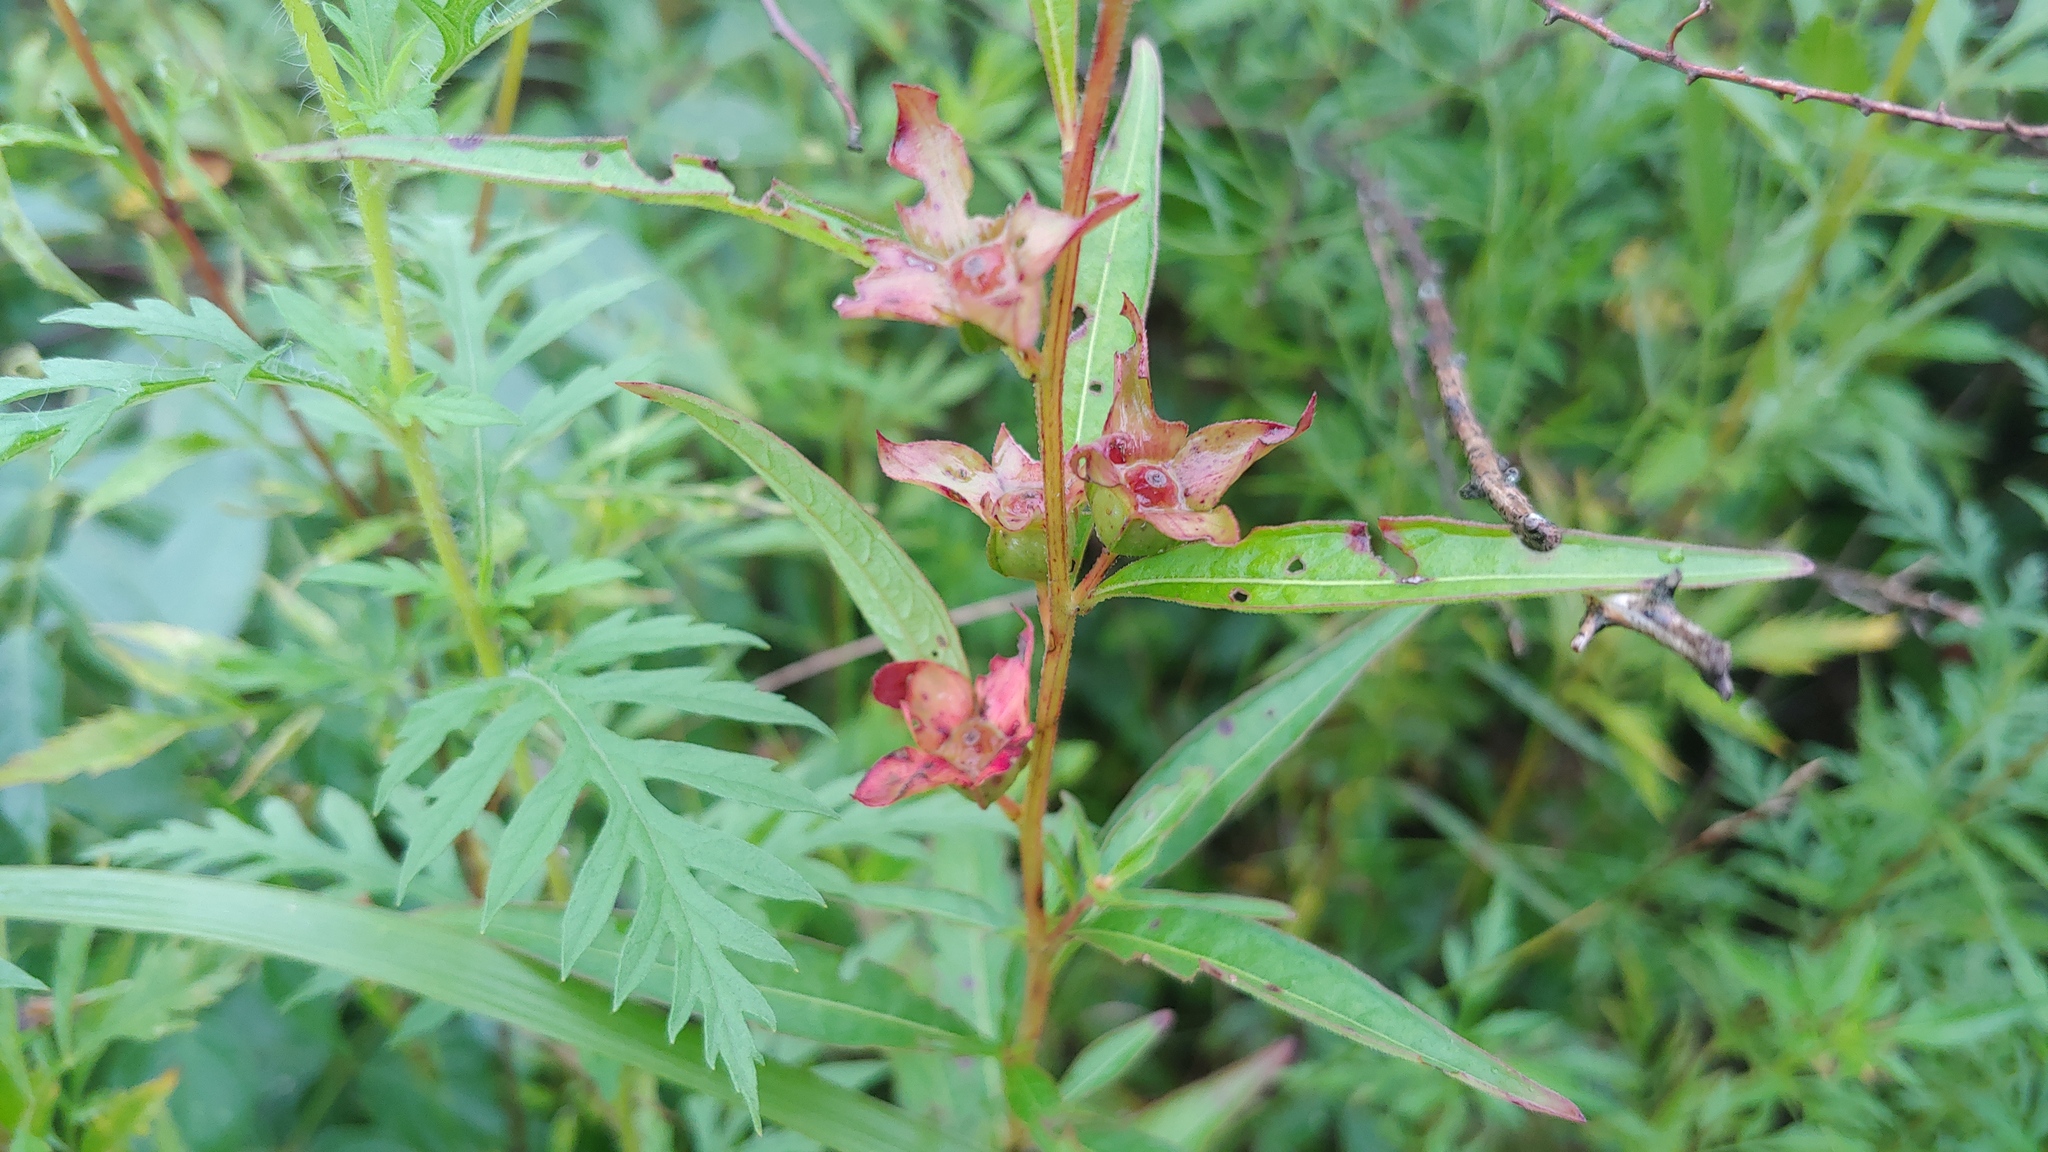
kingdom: Plantae
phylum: Tracheophyta
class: Magnoliopsida
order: Myrtales
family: Onagraceae
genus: Ludwigia
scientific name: Ludwigia alternifolia
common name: Rattlebox
